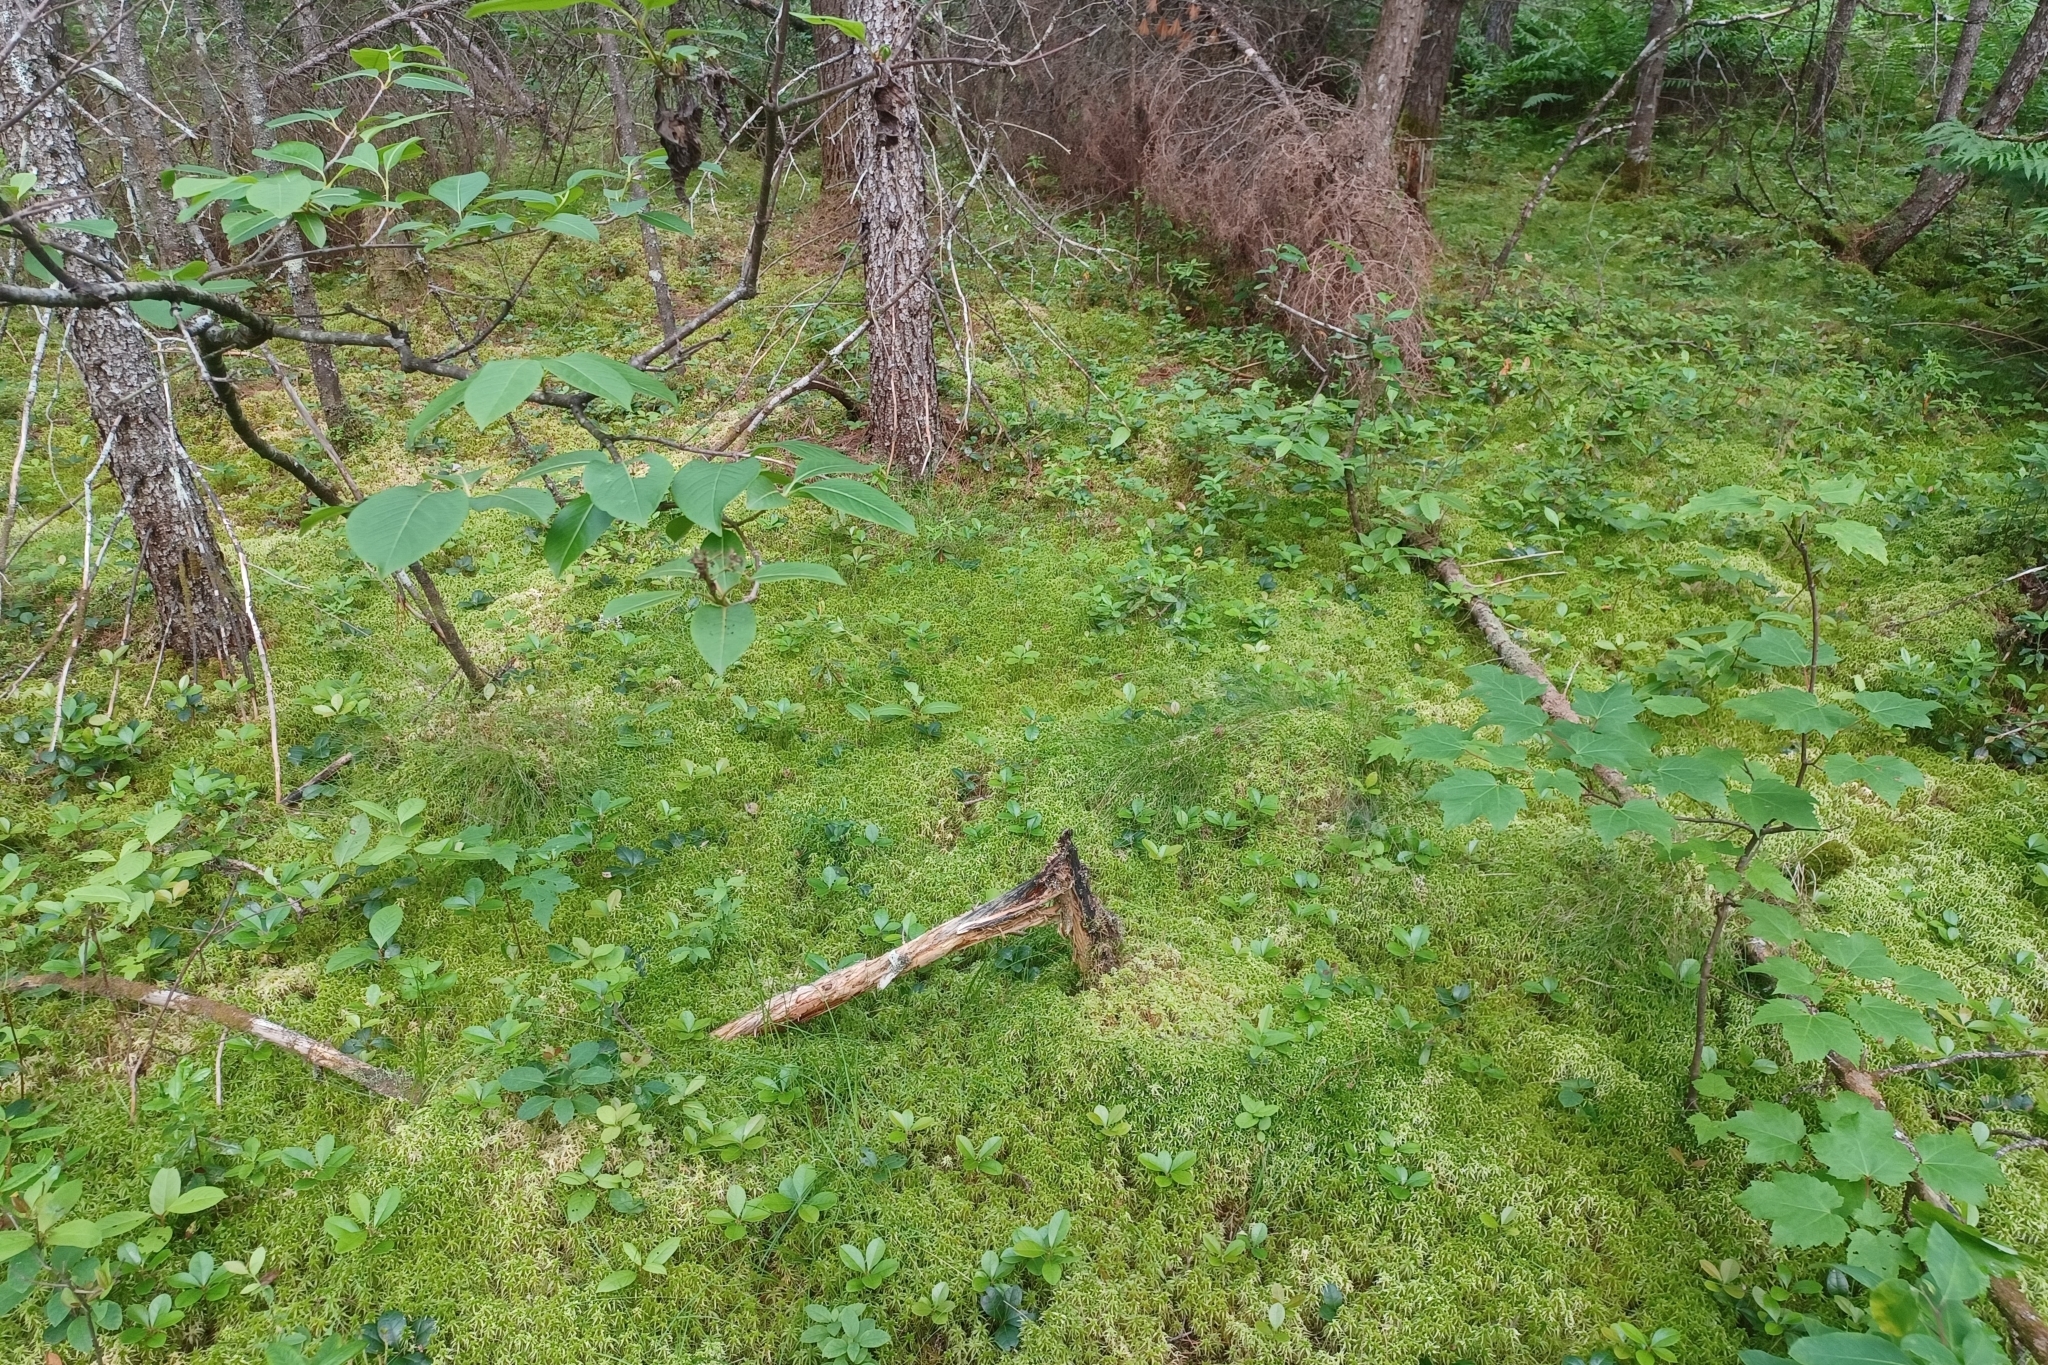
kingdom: Plantae
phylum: Tracheophyta
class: Liliopsida
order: Poales
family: Cyperaceae
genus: Carex
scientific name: Carex trisperma
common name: Three-seeded sedge
